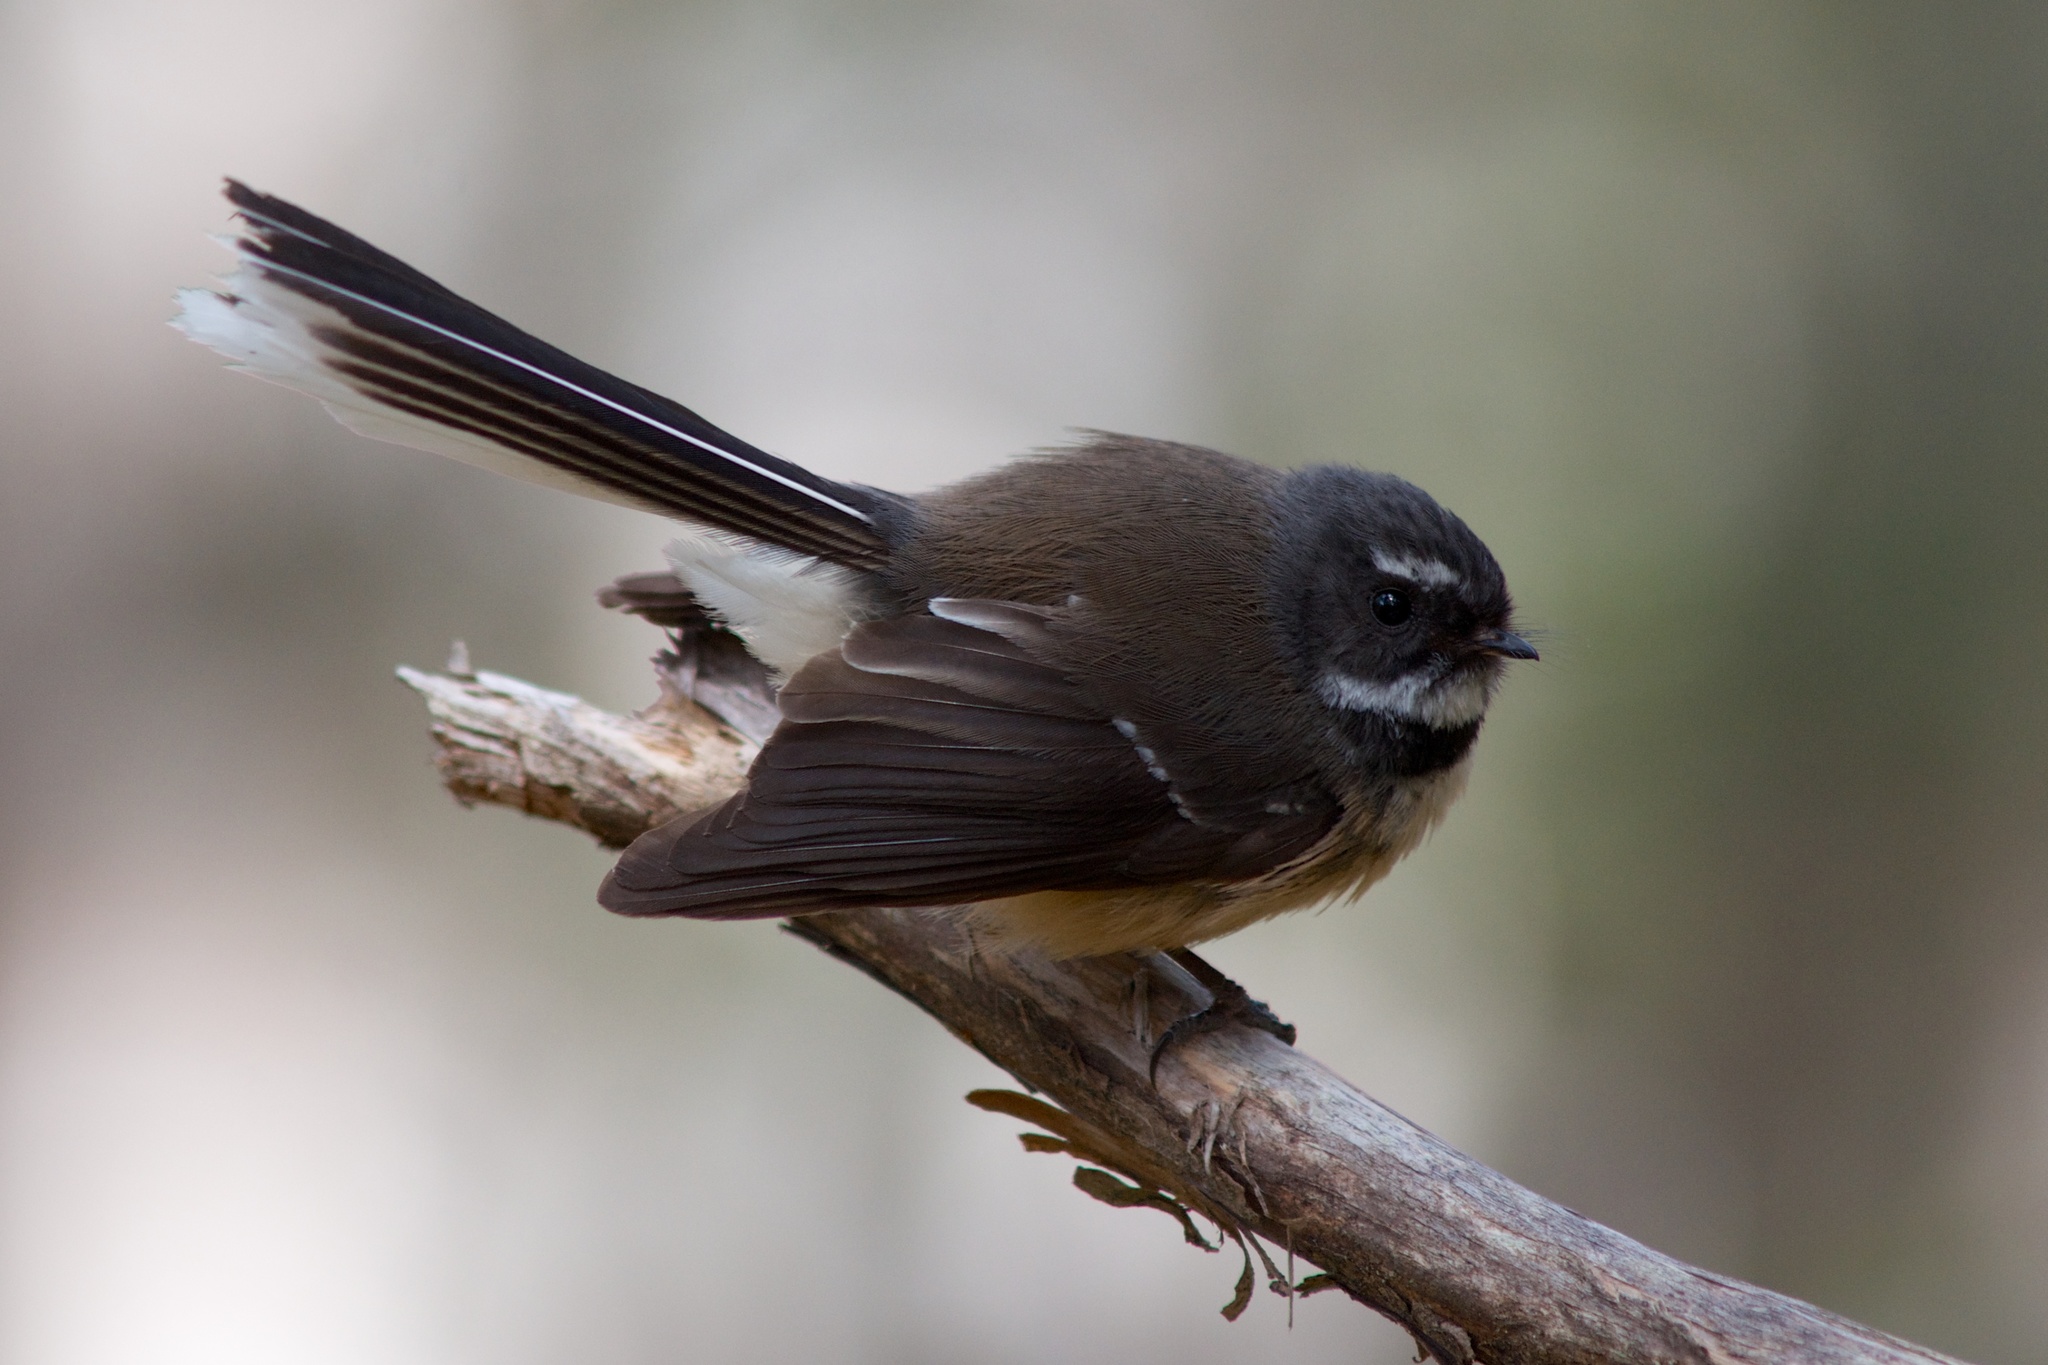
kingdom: Animalia
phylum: Chordata
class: Aves
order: Passeriformes
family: Rhipiduridae
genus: Rhipidura
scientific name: Rhipidura fuliginosa
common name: New zealand fantail
